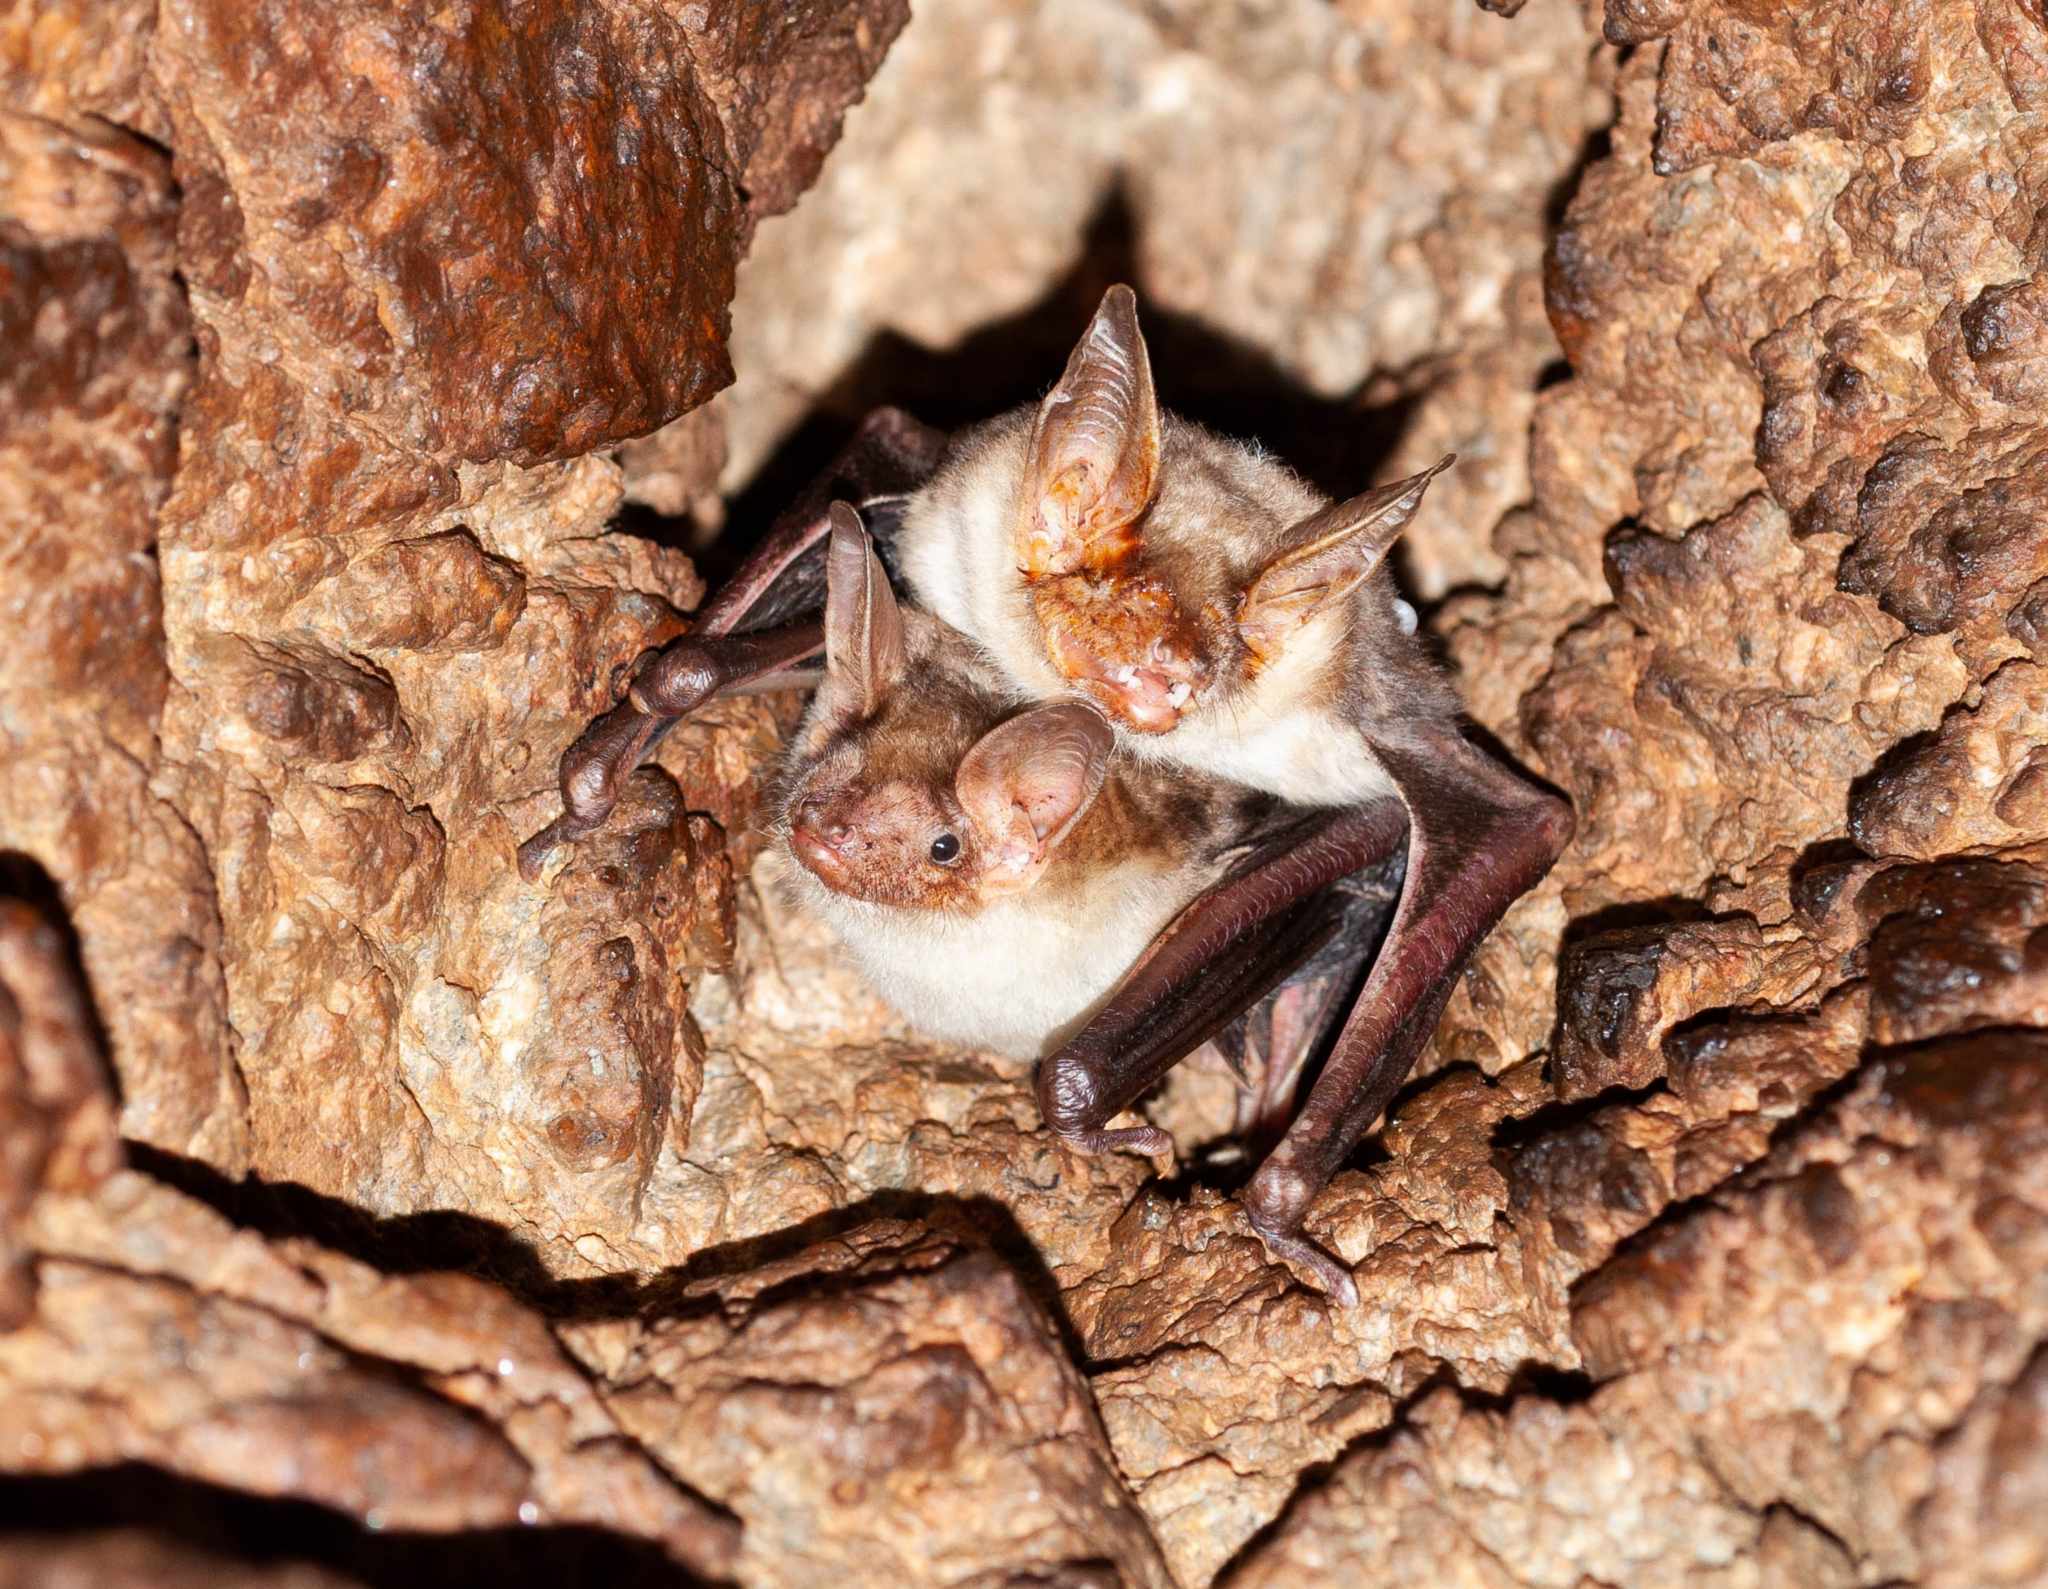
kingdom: Animalia
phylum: Chordata
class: Mammalia
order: Chiroptera
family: Vespertilionidae
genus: Myotis
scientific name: Myotis
